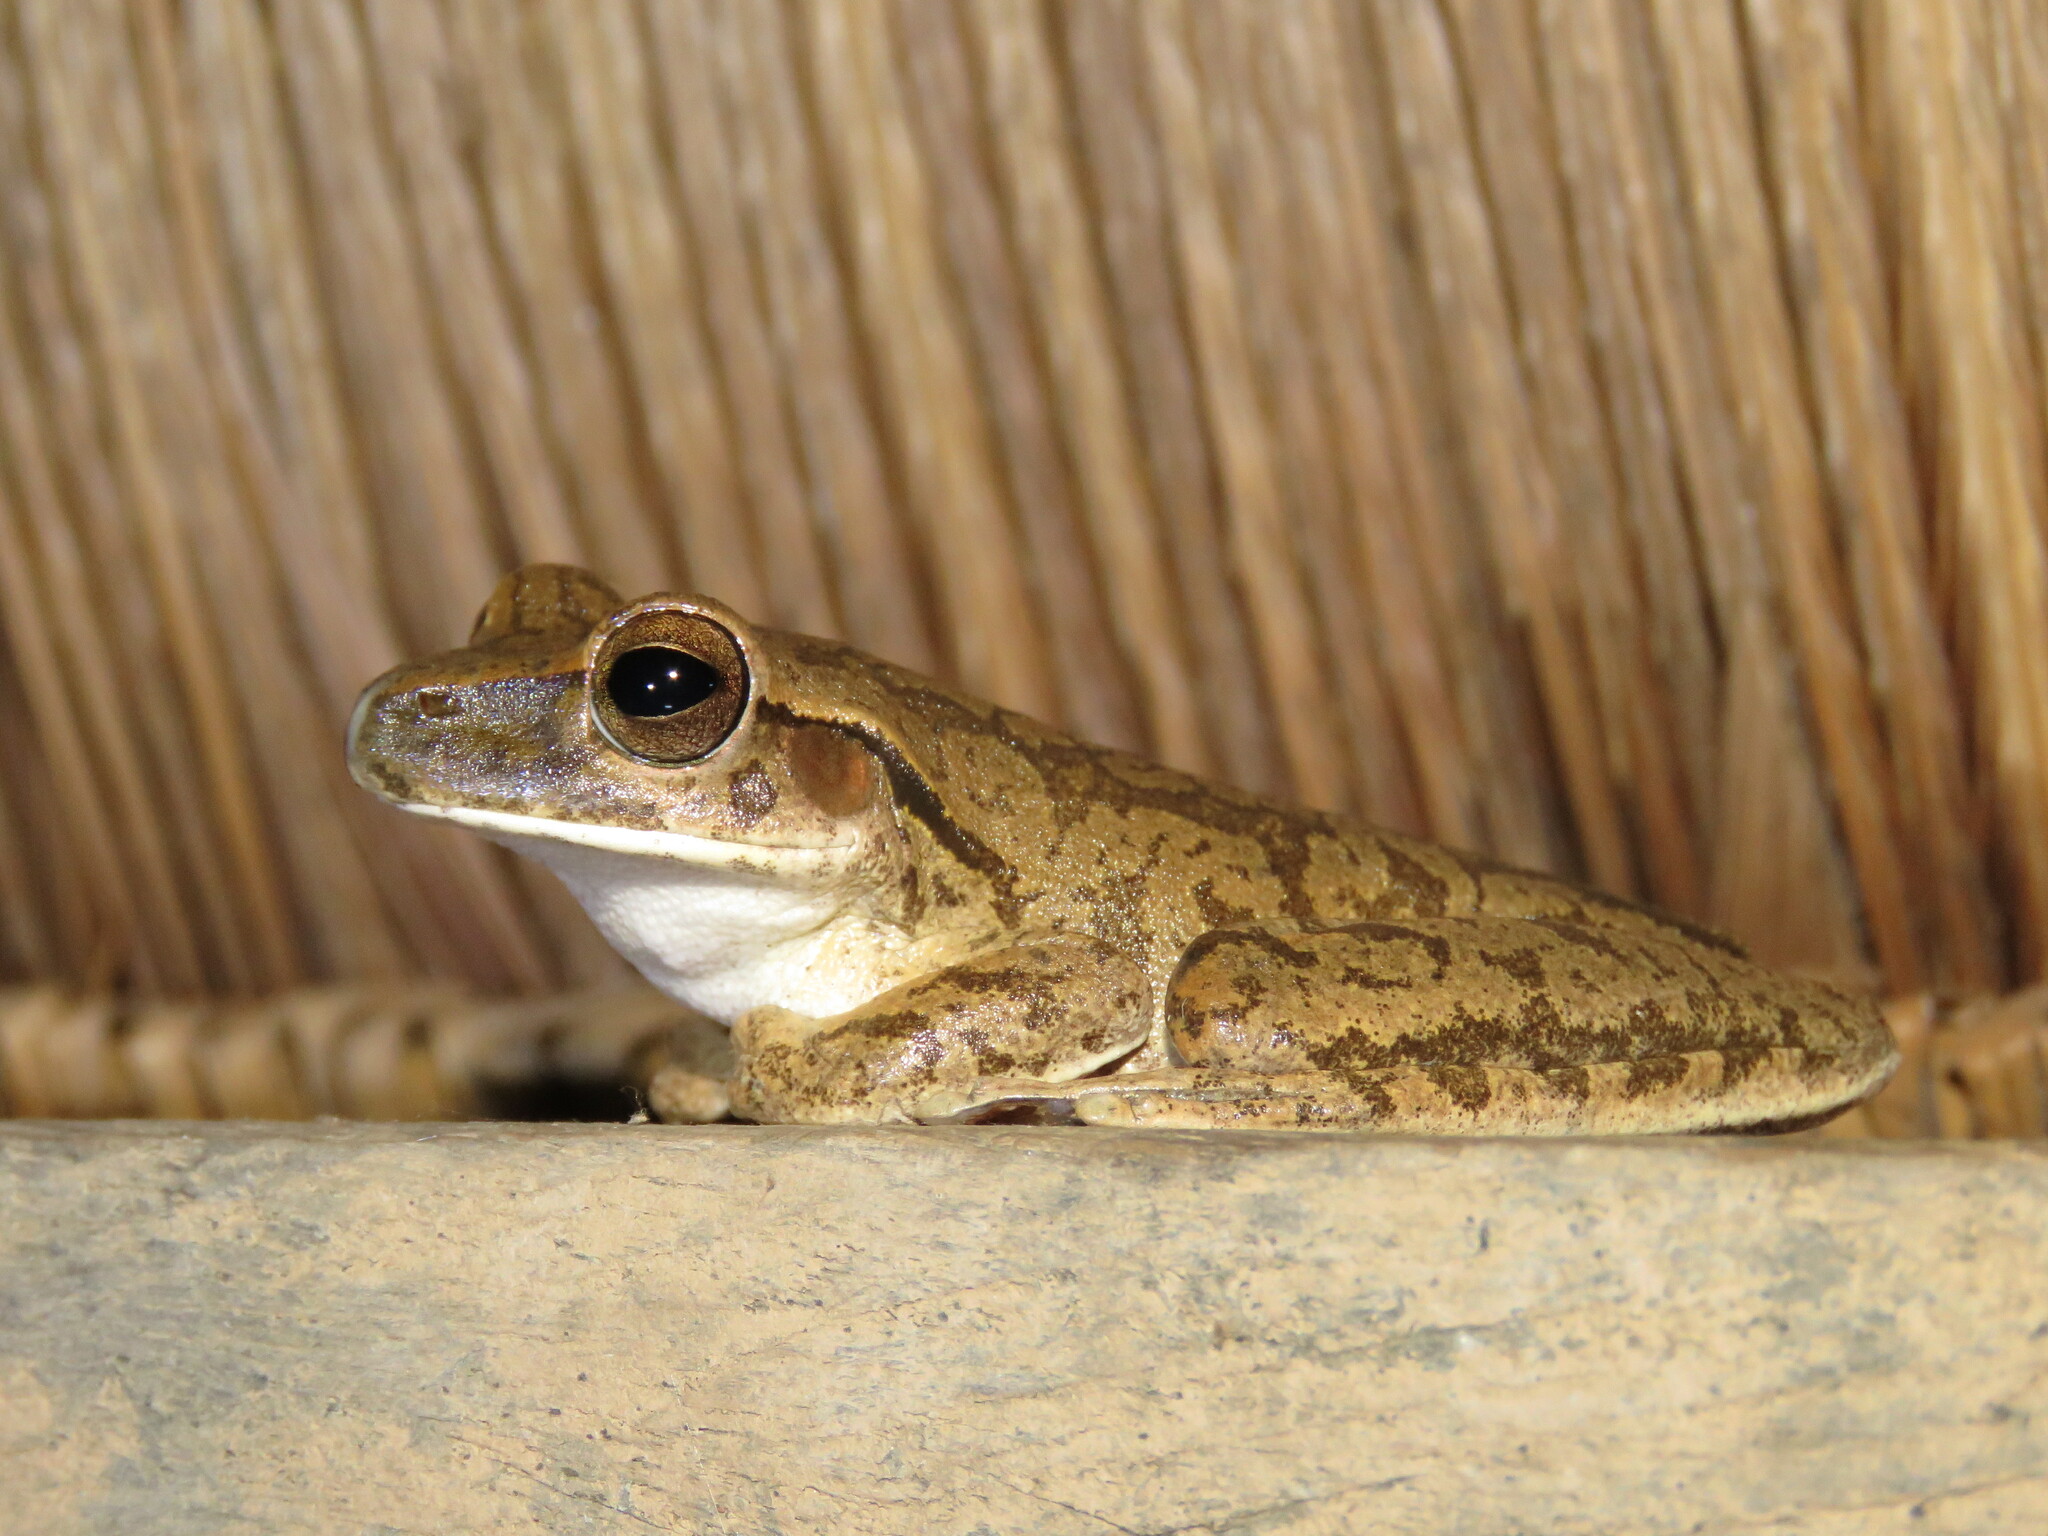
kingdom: Animalia
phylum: Chordata
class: Amphibia
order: Anura
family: Hylidae
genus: Boana
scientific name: Boana raniceps
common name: Chaco treefrog
